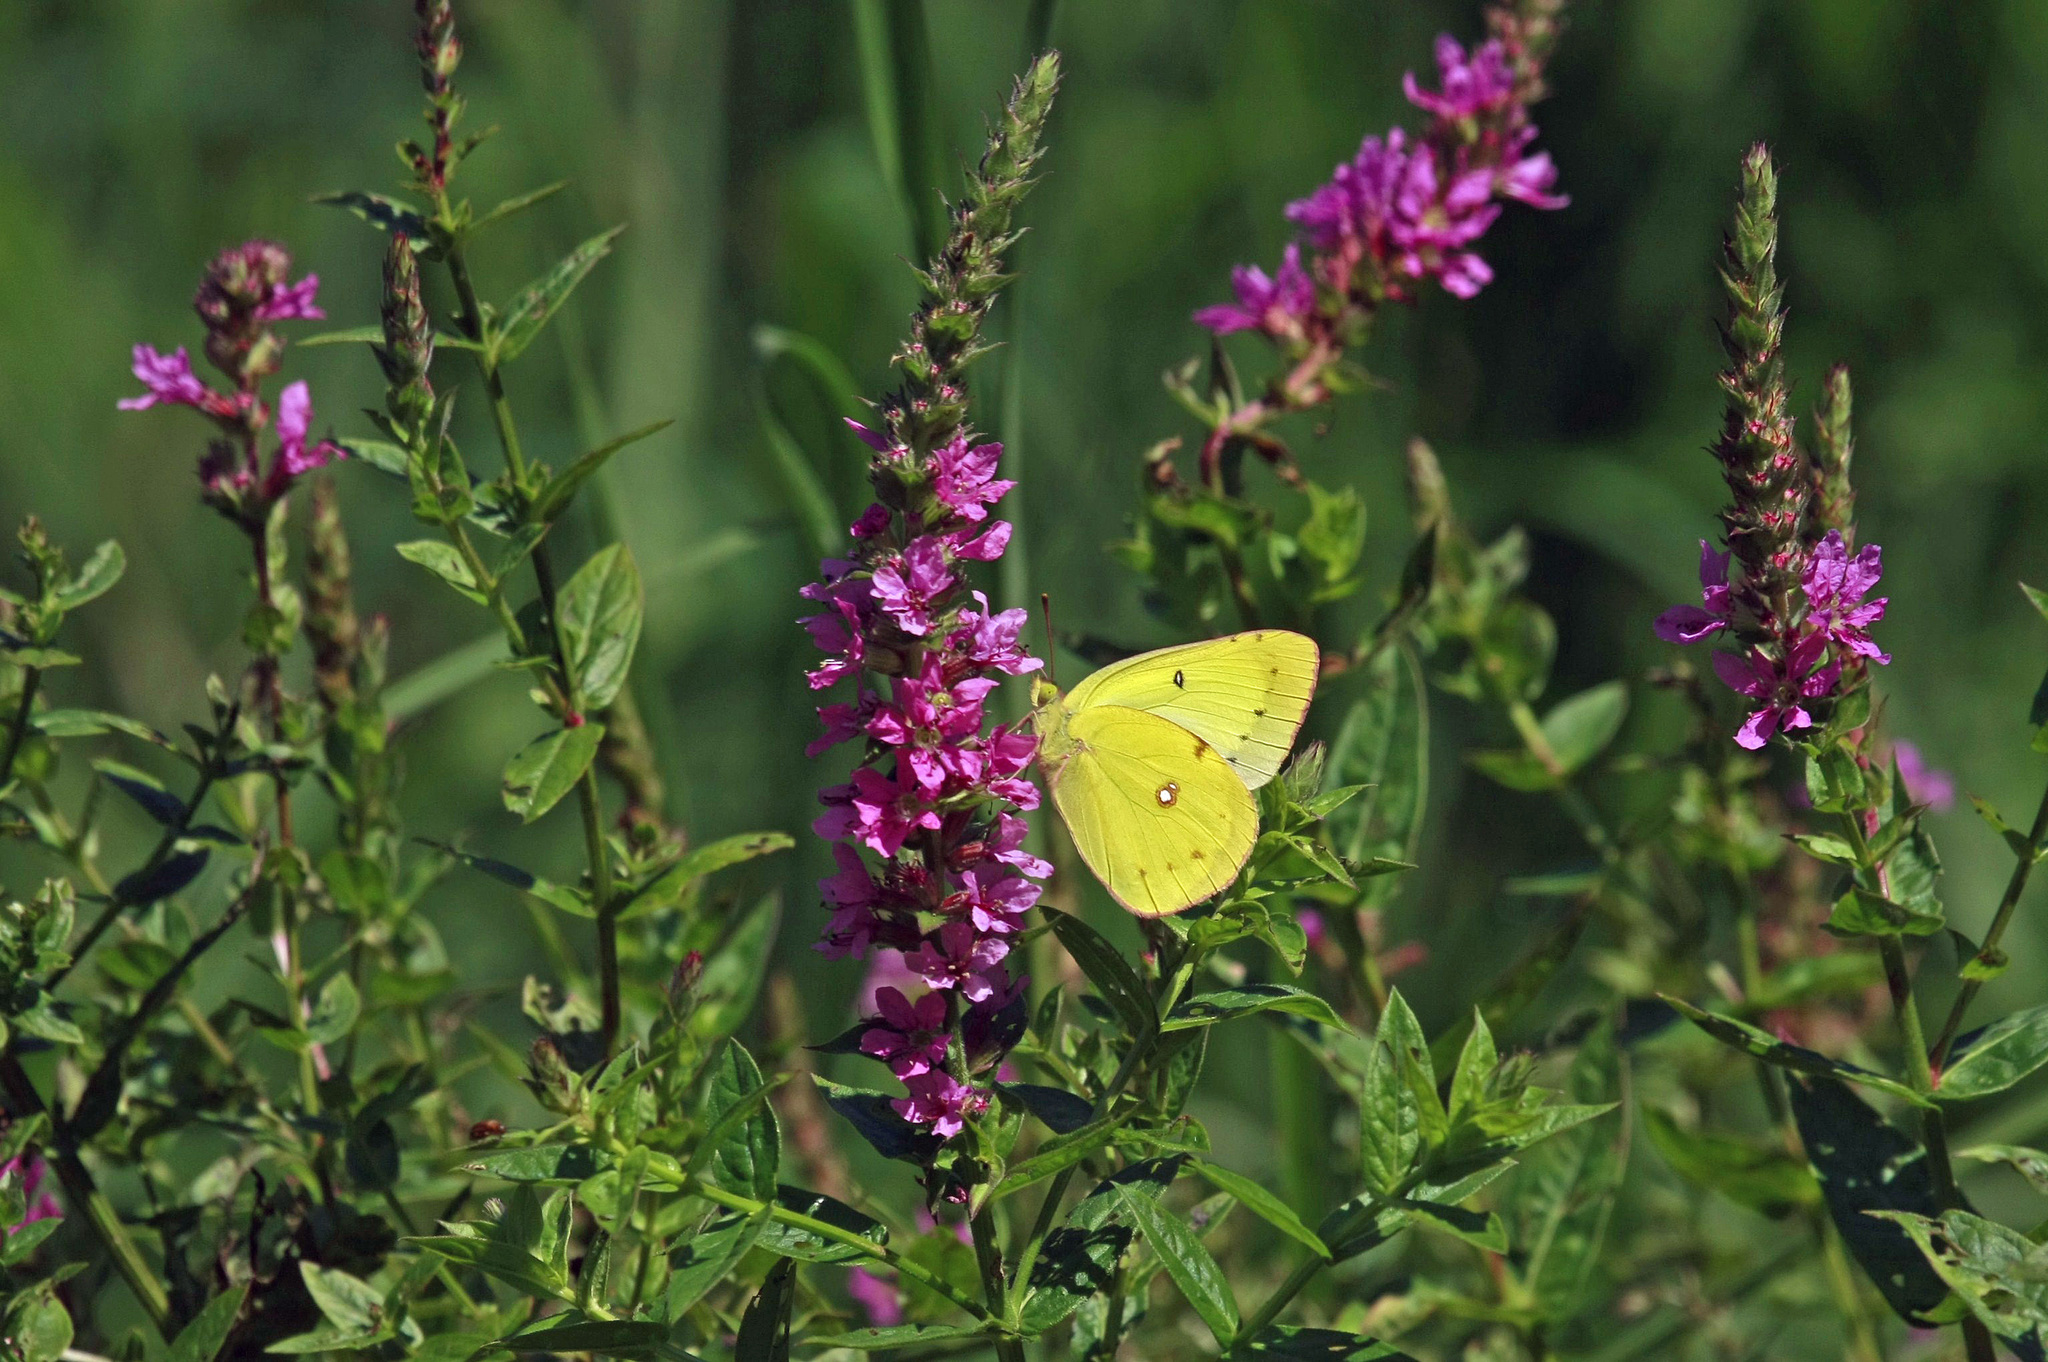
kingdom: Animalia
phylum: Arthropoda
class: Insecta
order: Lepidoptera
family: Pieridae
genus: Colias
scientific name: Colias eurytheme
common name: Alfalfa butterfly
